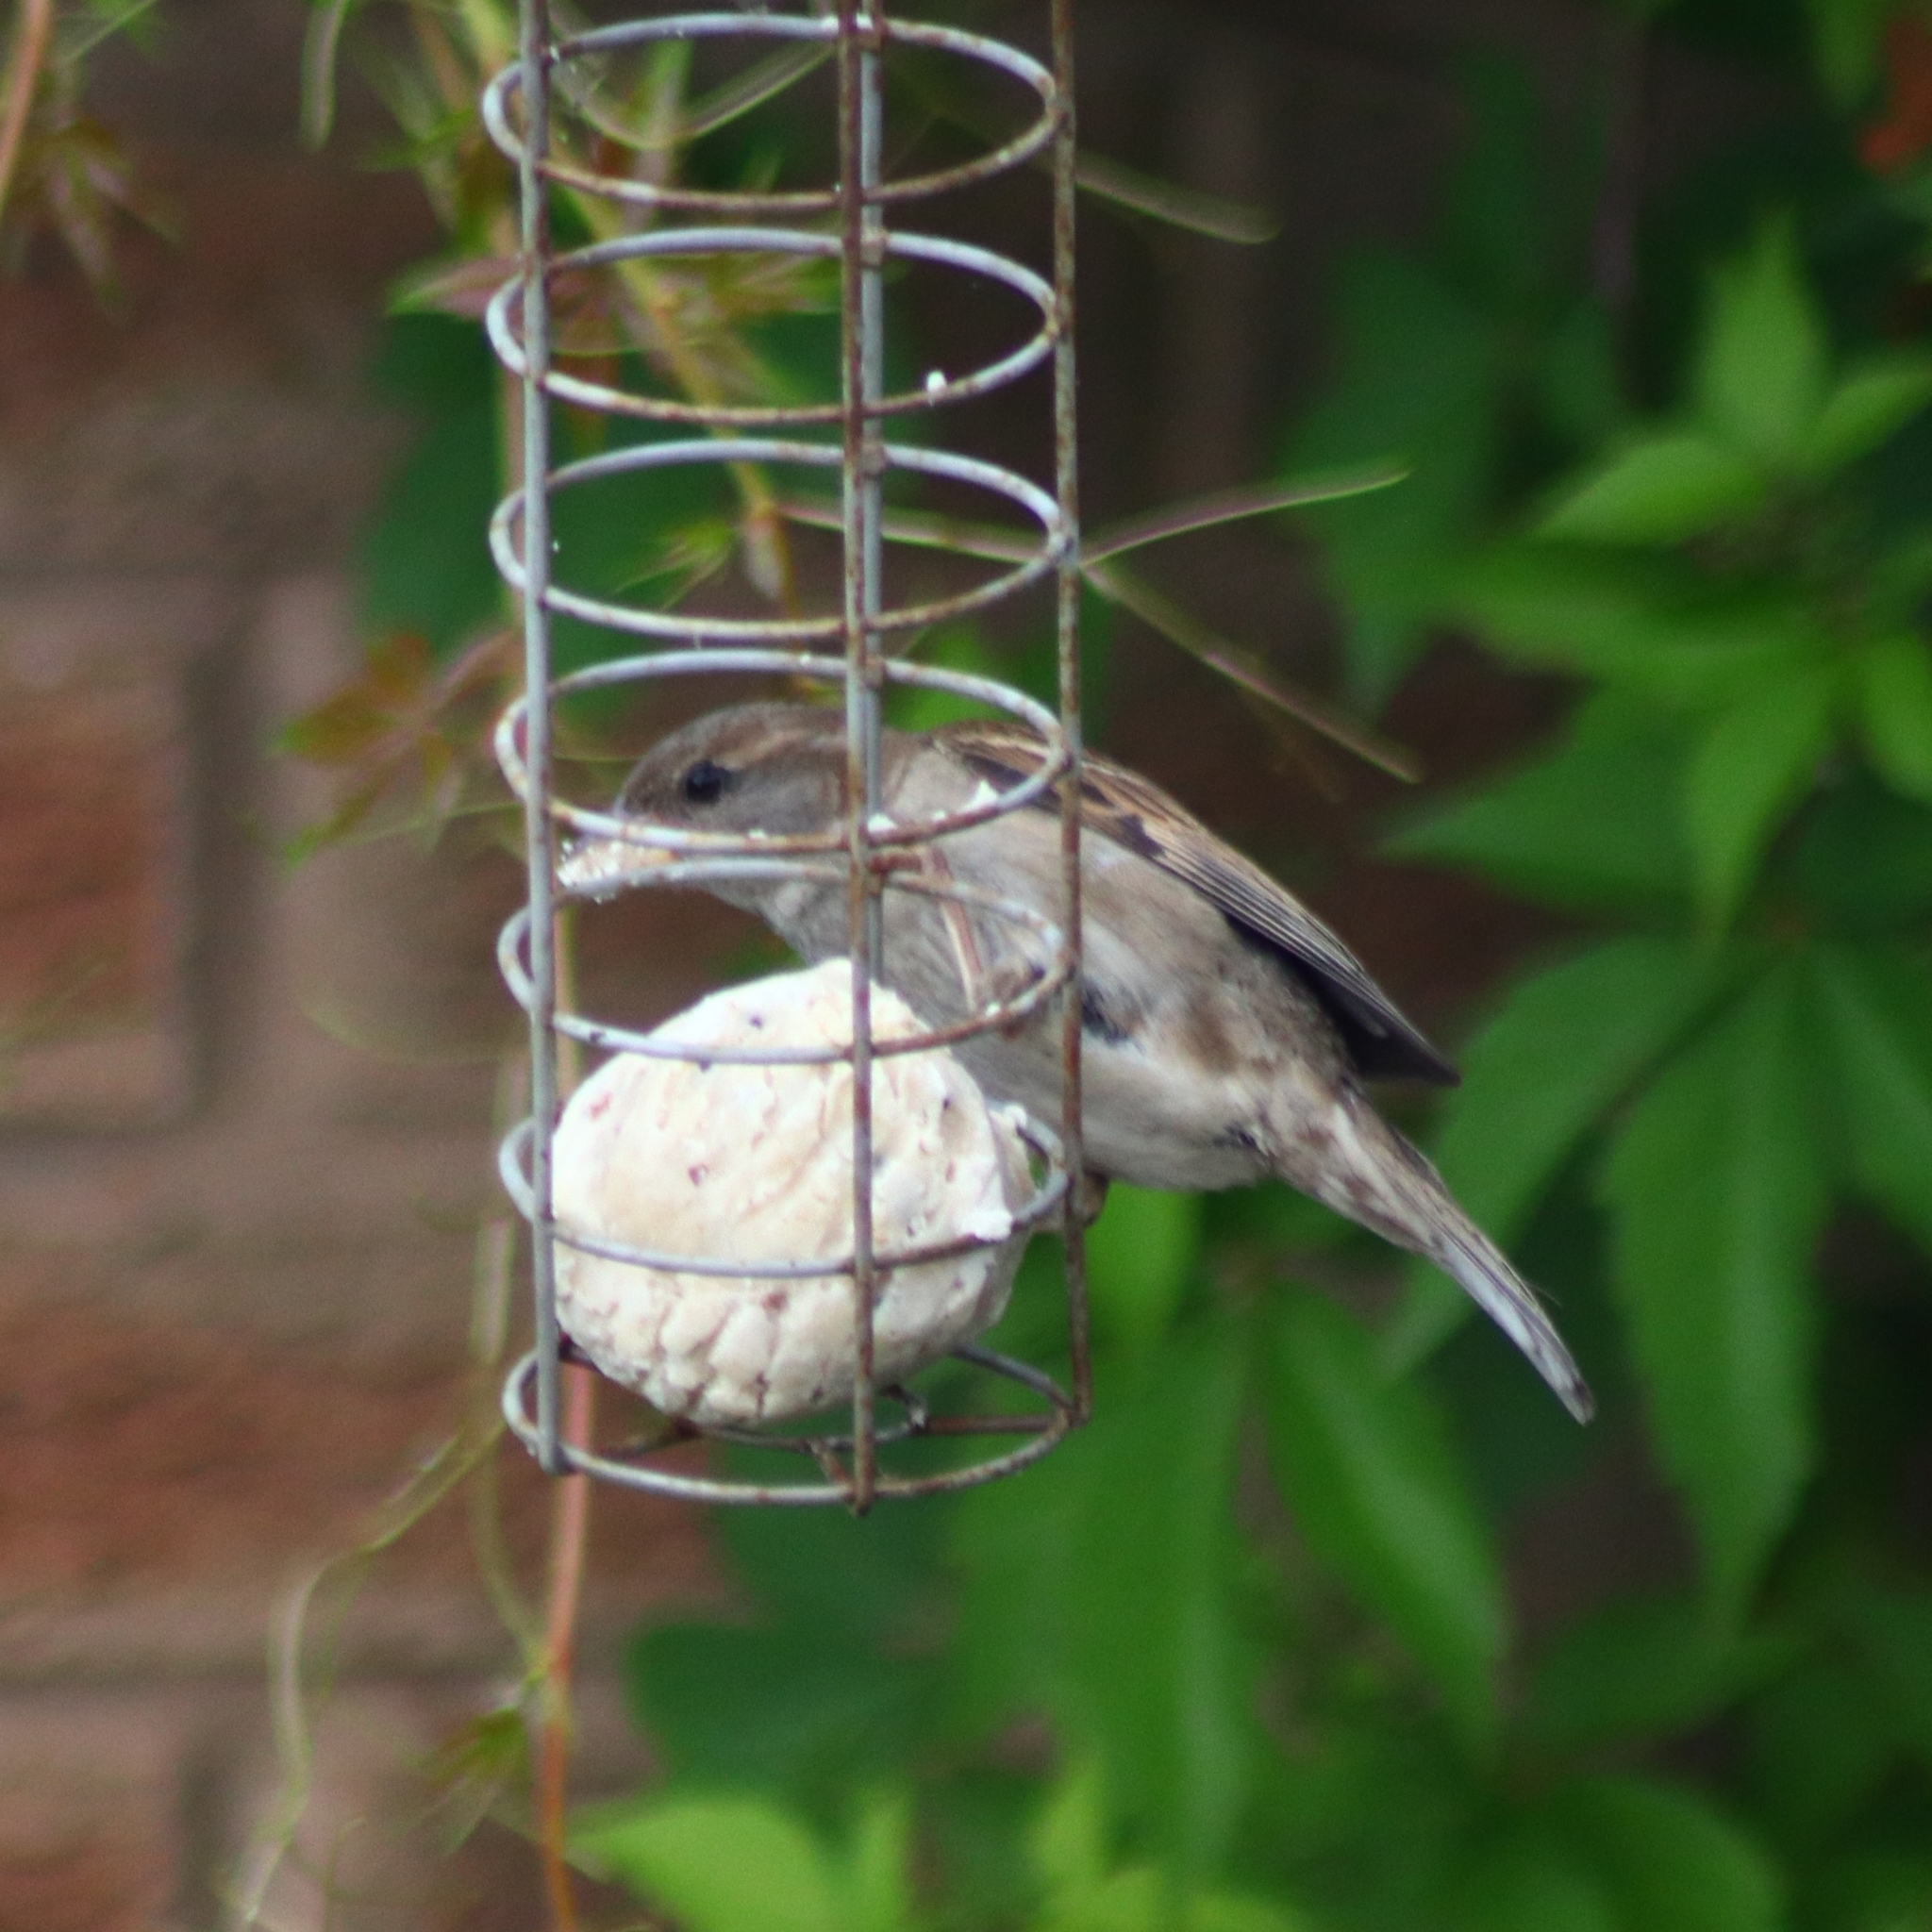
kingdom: Animalia
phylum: Chordata
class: Aves
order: Passeriformes
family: Passeridae
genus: Passer
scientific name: Passer domesticus
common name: House sparrow
